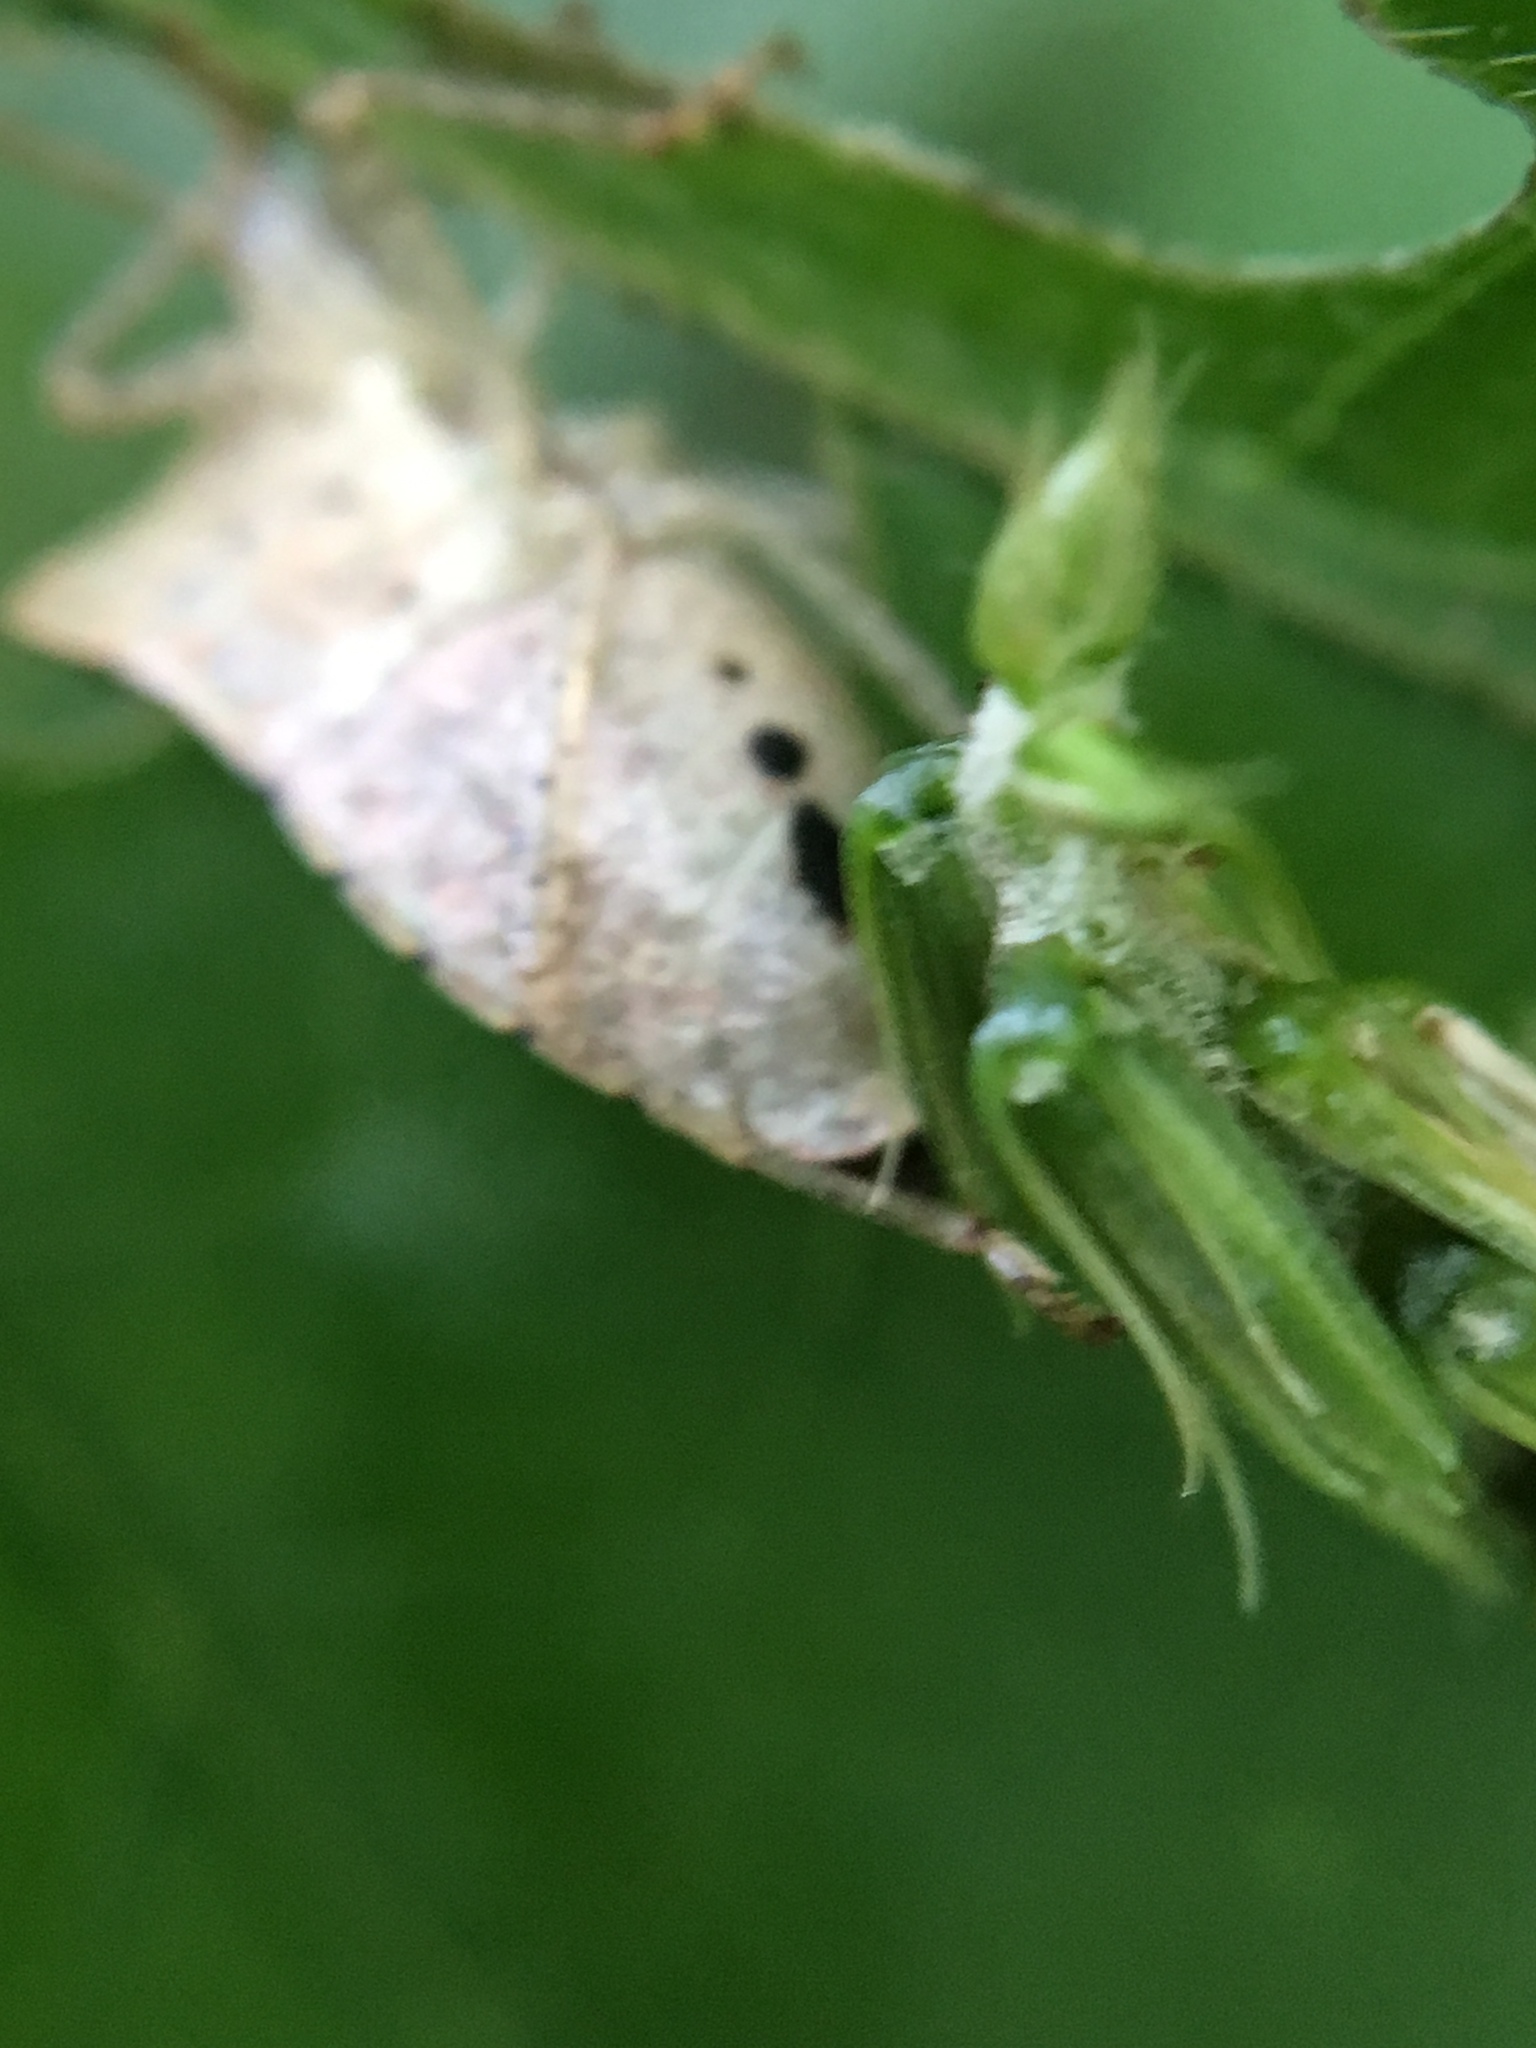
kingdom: Animalia
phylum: Arthropoda
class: Insecta
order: Hemiptera
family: Pentatomidae
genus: Euschistus
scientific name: Euschistus tristigmus
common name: Dusky stink bug
